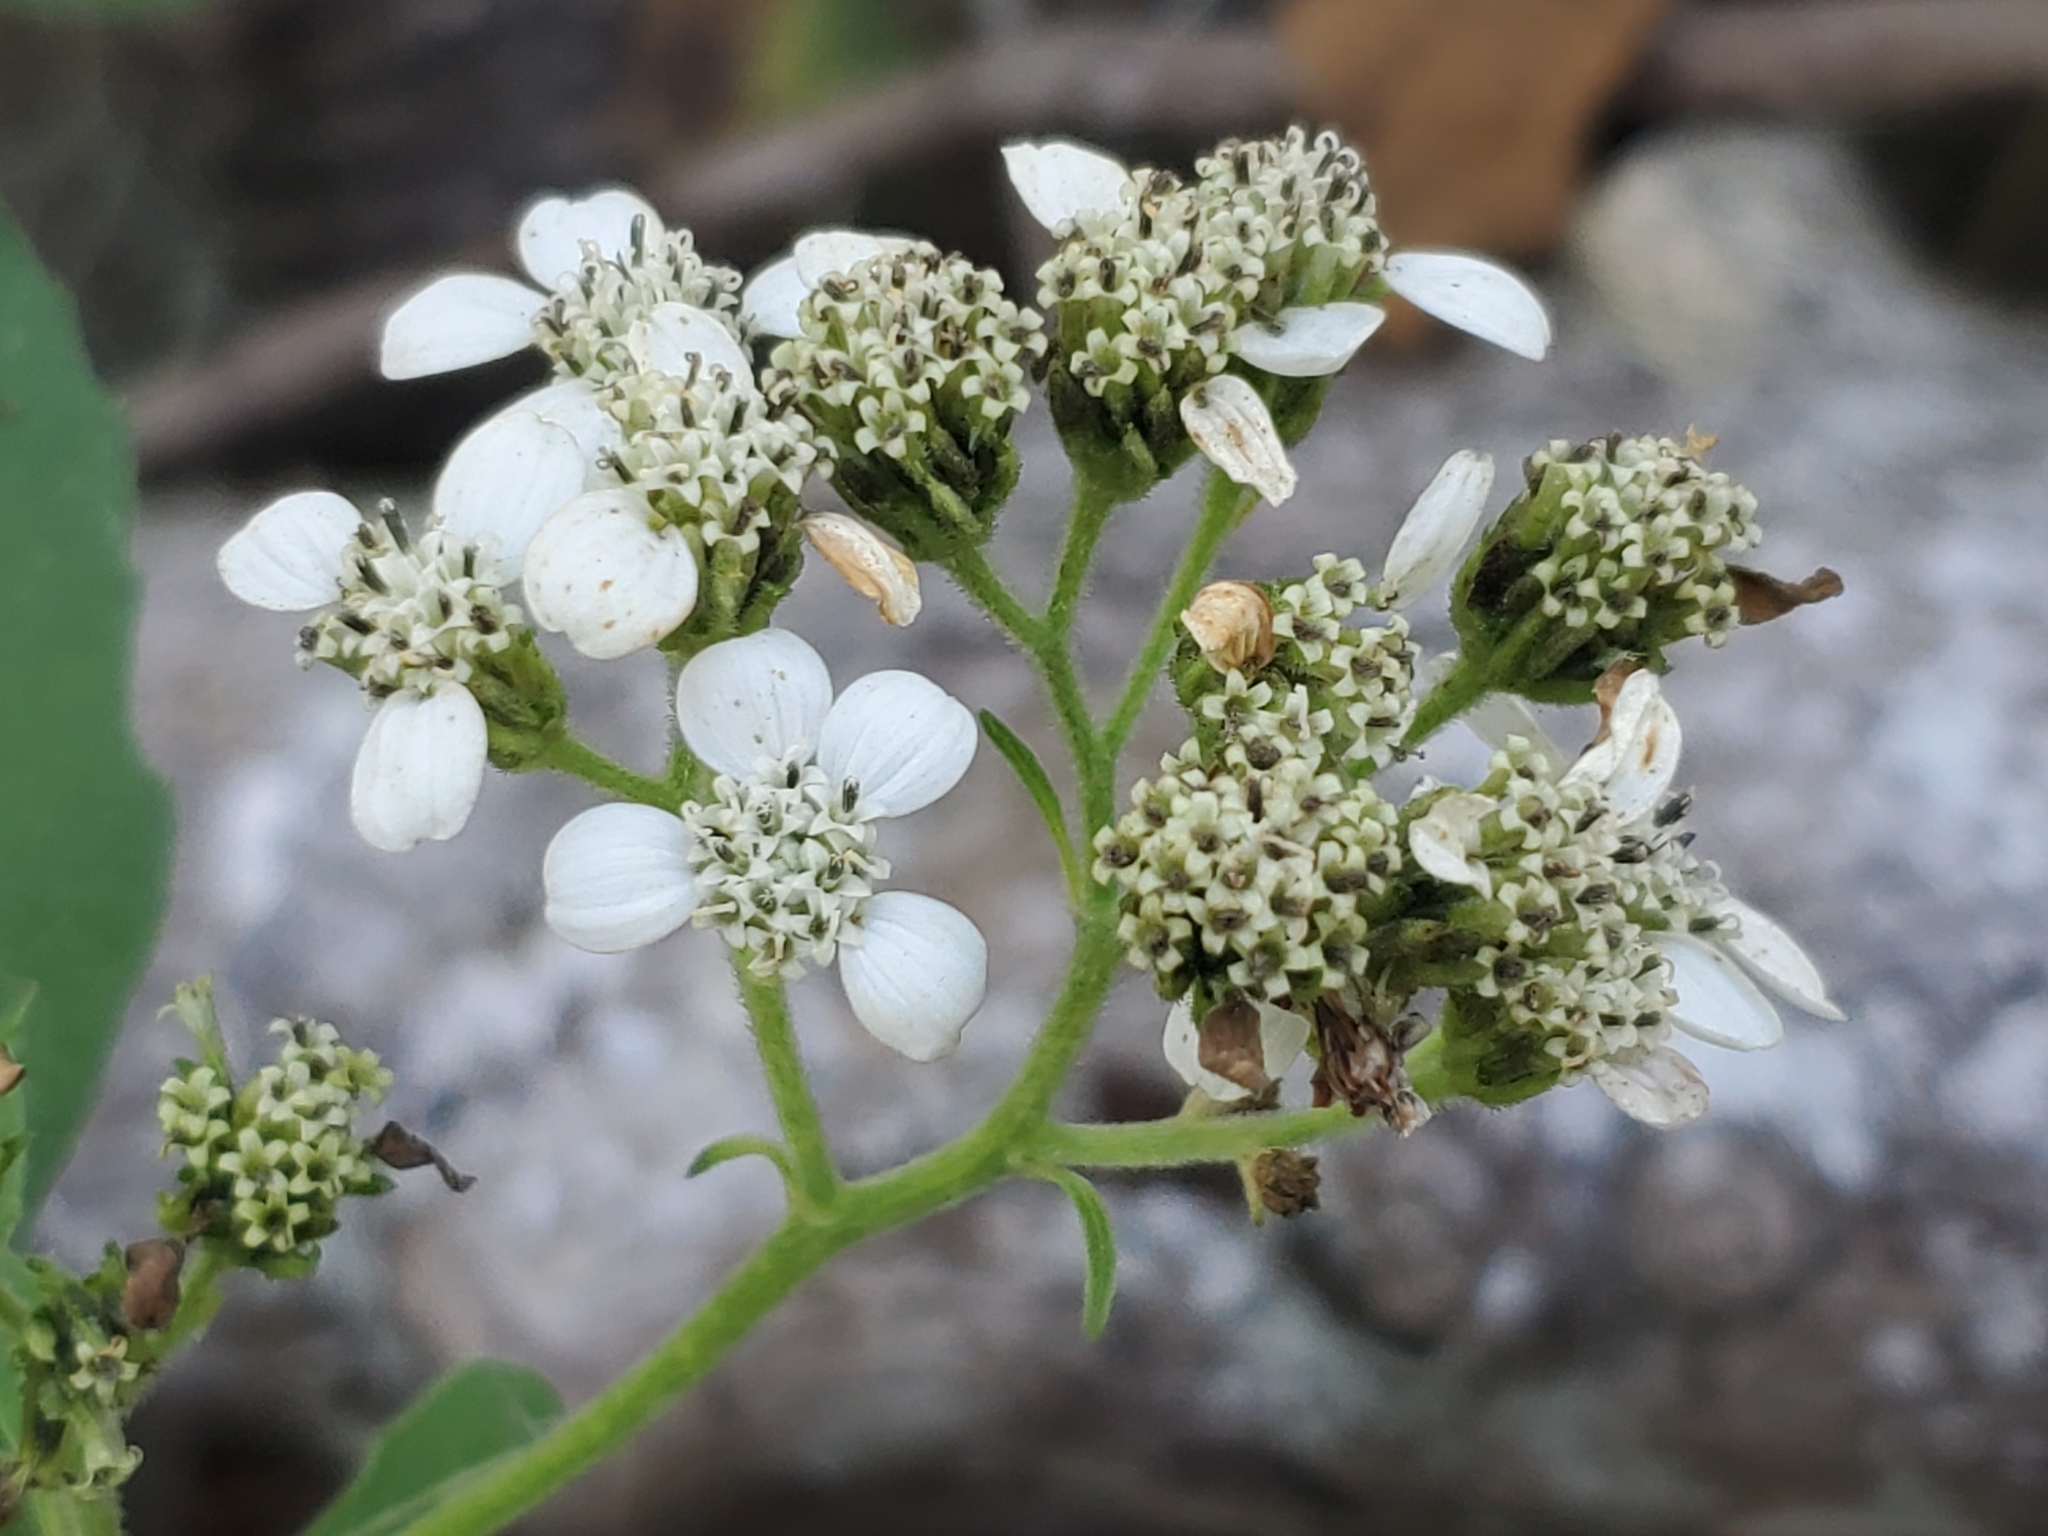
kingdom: Plantae
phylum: Tracheophyta
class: Magnoliopsida
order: Asterales
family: Asteraceae
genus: Verbesina
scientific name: Verbesina virginica
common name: Frostweed
